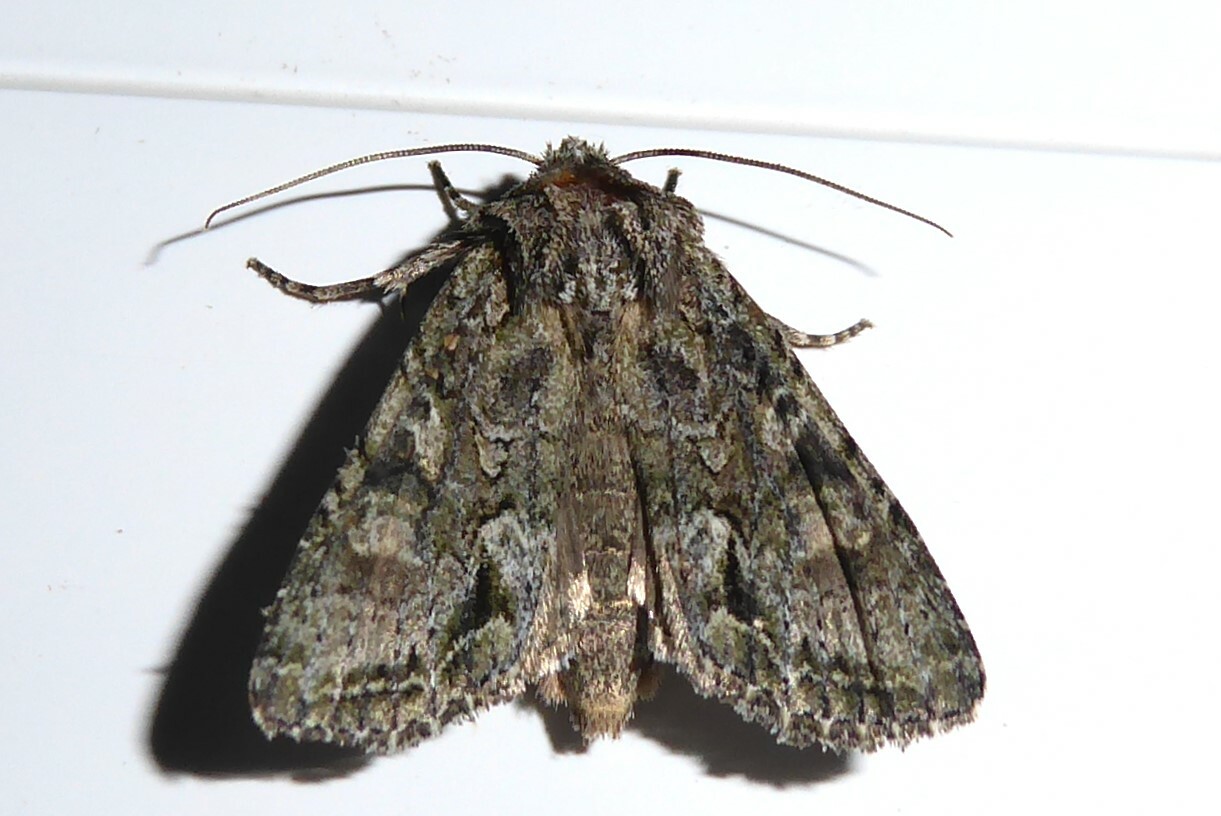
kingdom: Animalia
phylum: Arthropoda
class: Insecta
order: Lepidoptera
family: Noctuidae
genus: Ichneutica
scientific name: Ichneutica mutans
